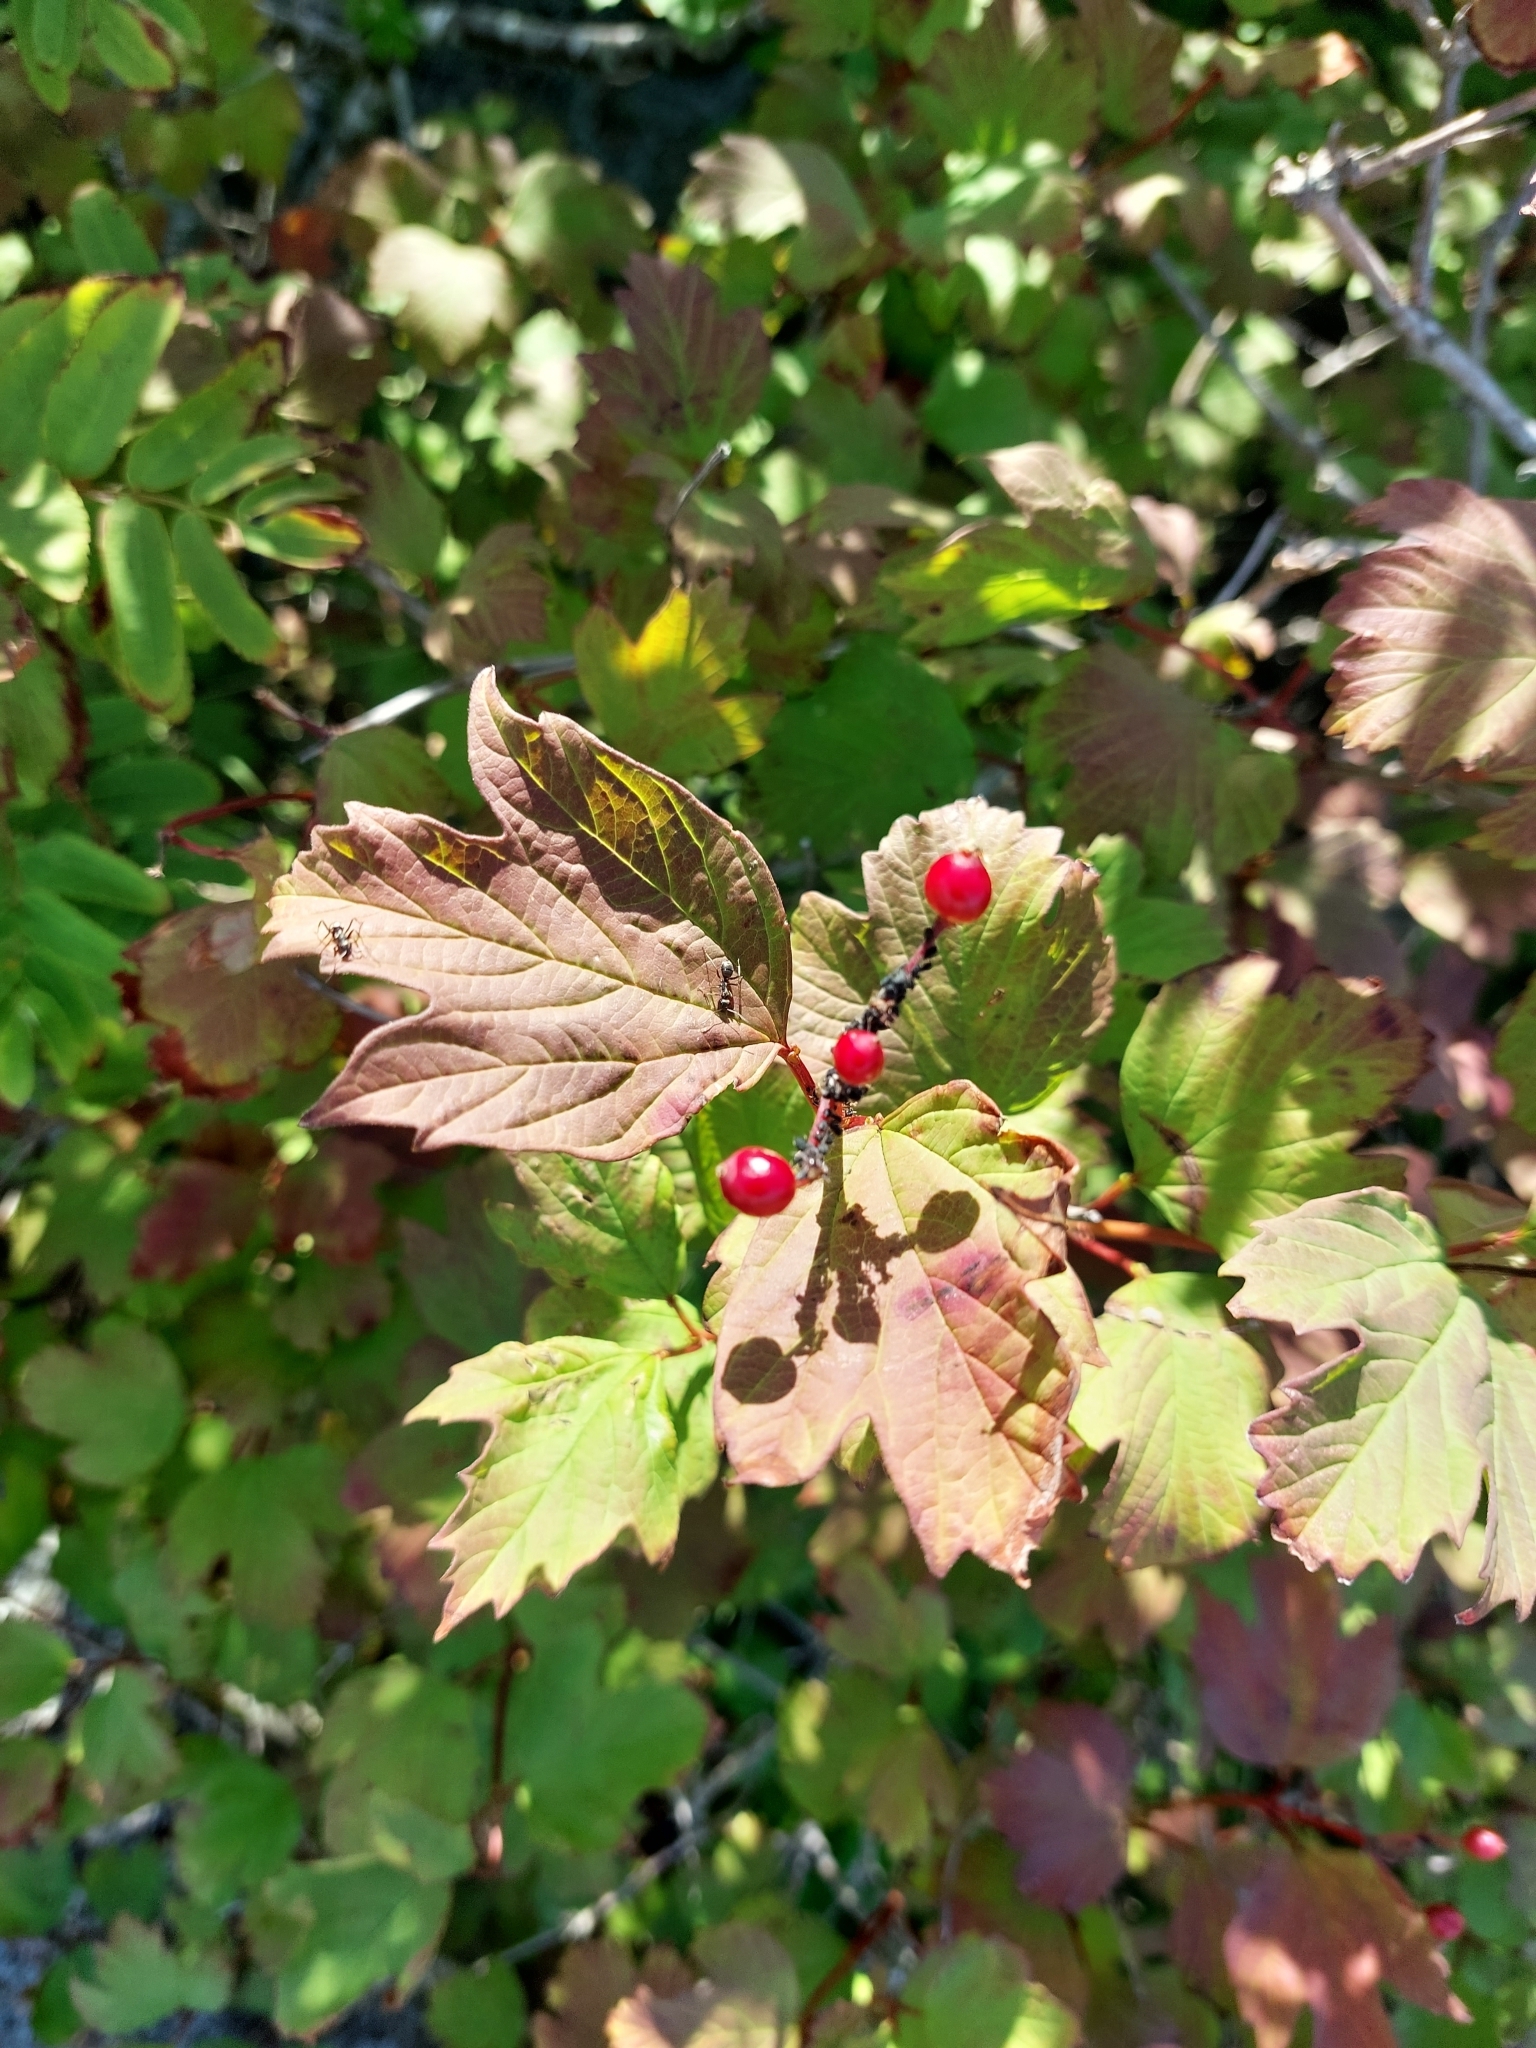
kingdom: Plantae
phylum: Tracheophyta
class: Magnoliopsida
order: Dipsacales
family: Viburnaceae
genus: Viburnum
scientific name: Viburnum opulus
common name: Guelder-rose
